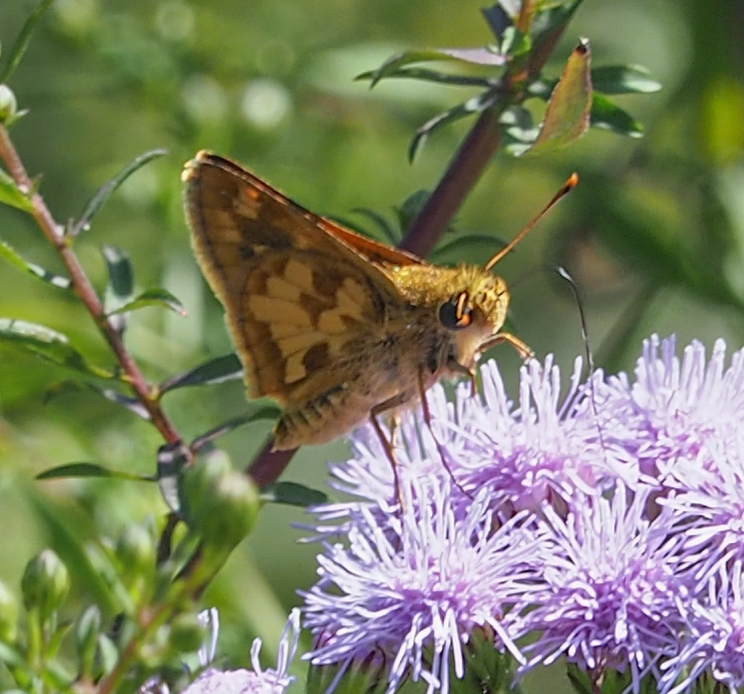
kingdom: Animalia
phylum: Arthropoda
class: Insecta
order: Lepidoptera
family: Hesperiidae
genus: Polites
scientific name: Polites coras
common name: Peck's skipper
